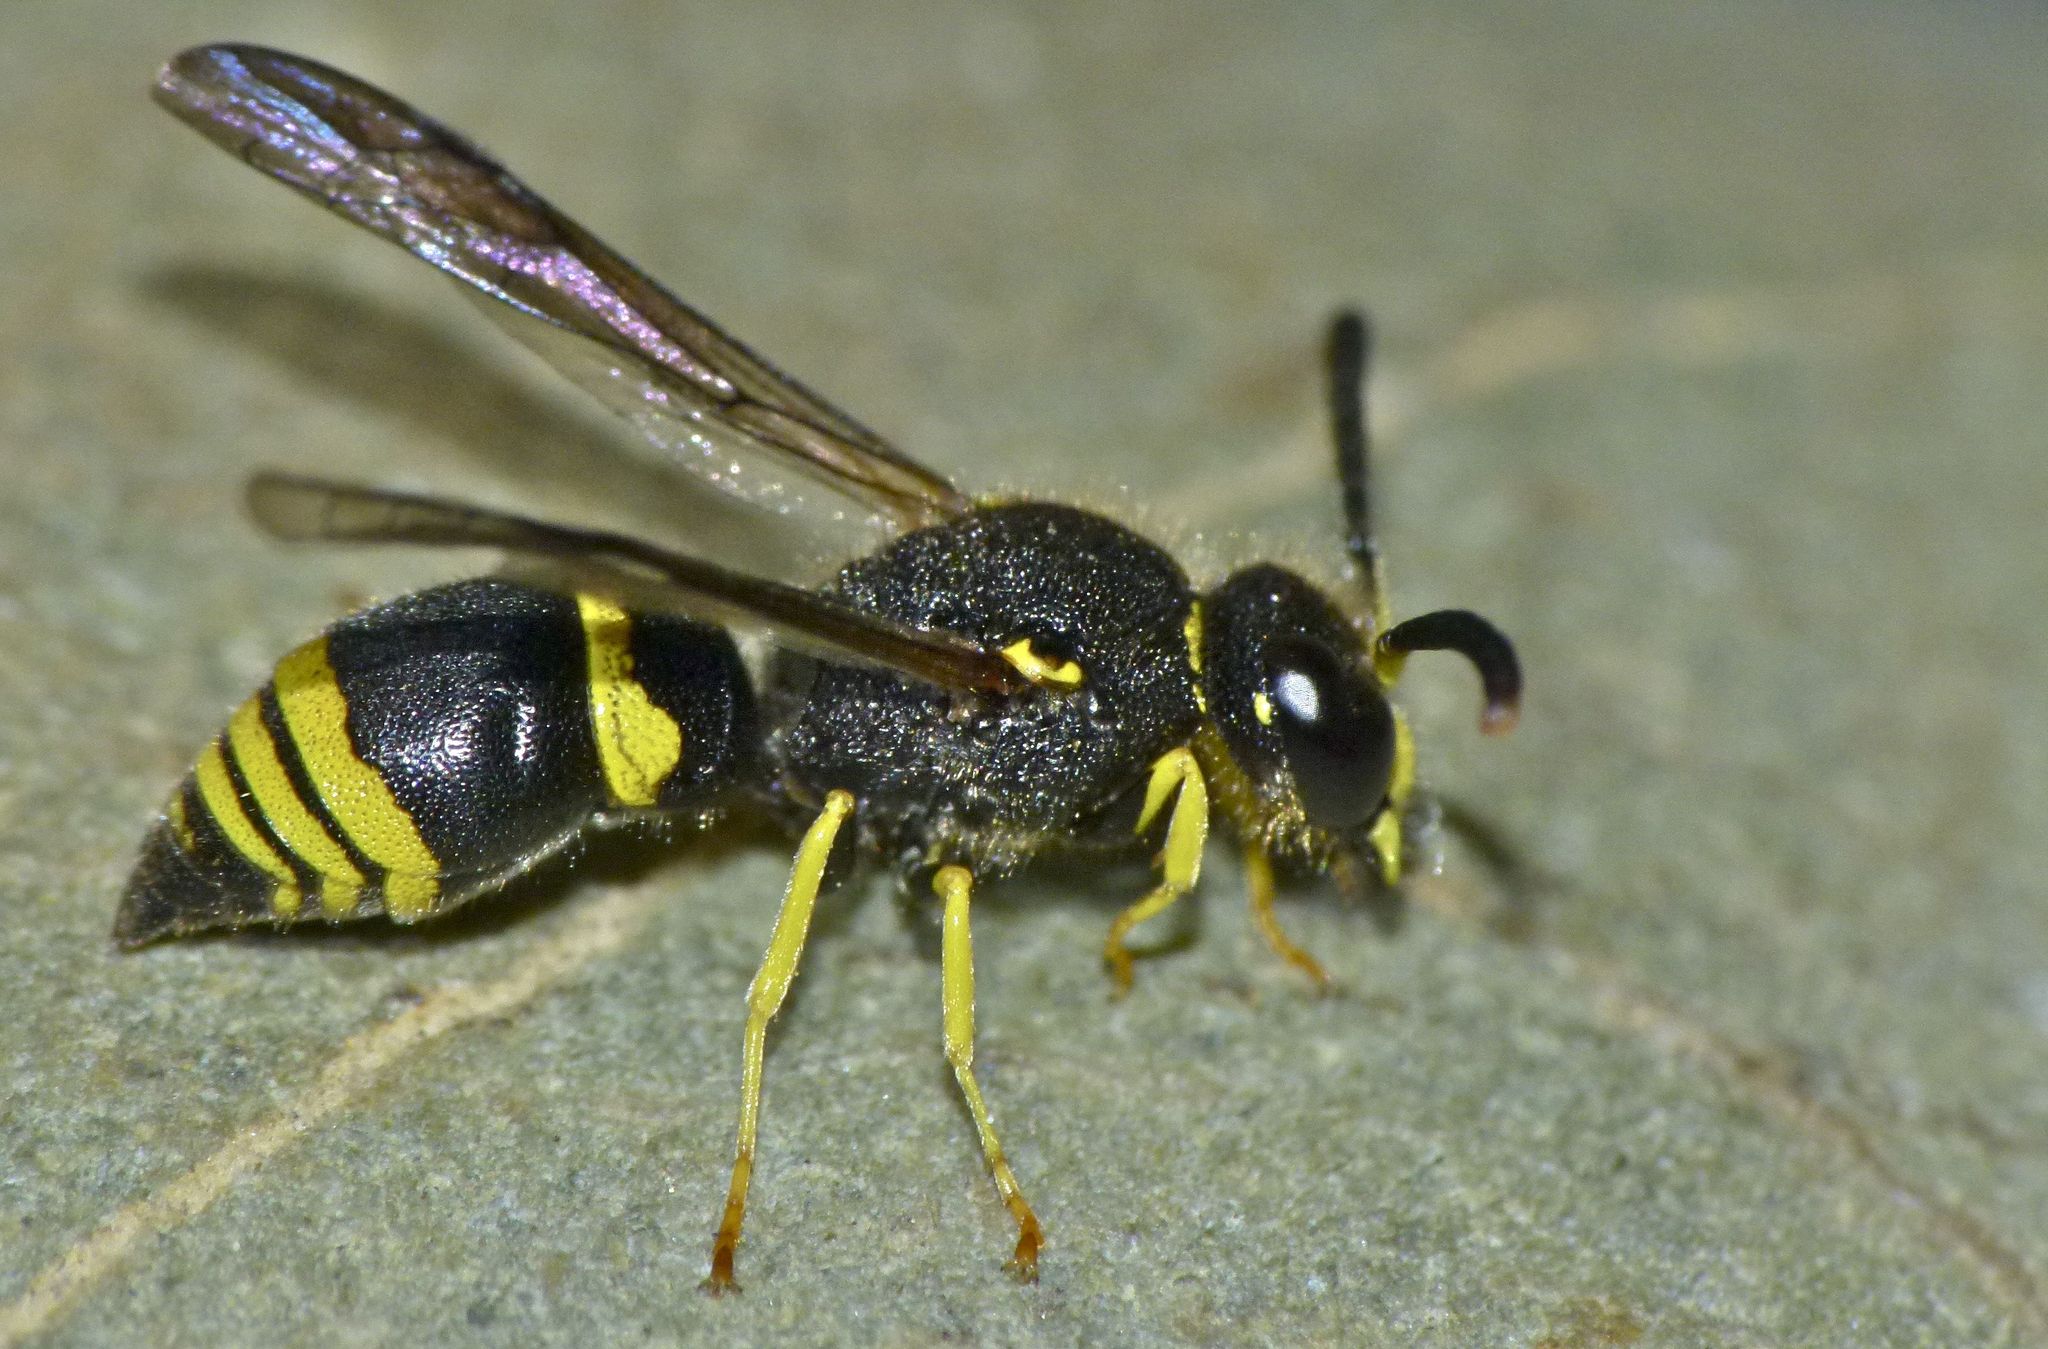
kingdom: Animalia
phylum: Arthropoda
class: Insecta
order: Hymenoptera
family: Vespidae
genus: Ancistrocerus
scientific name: Ancistrocerus gazella
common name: European tube wasp
